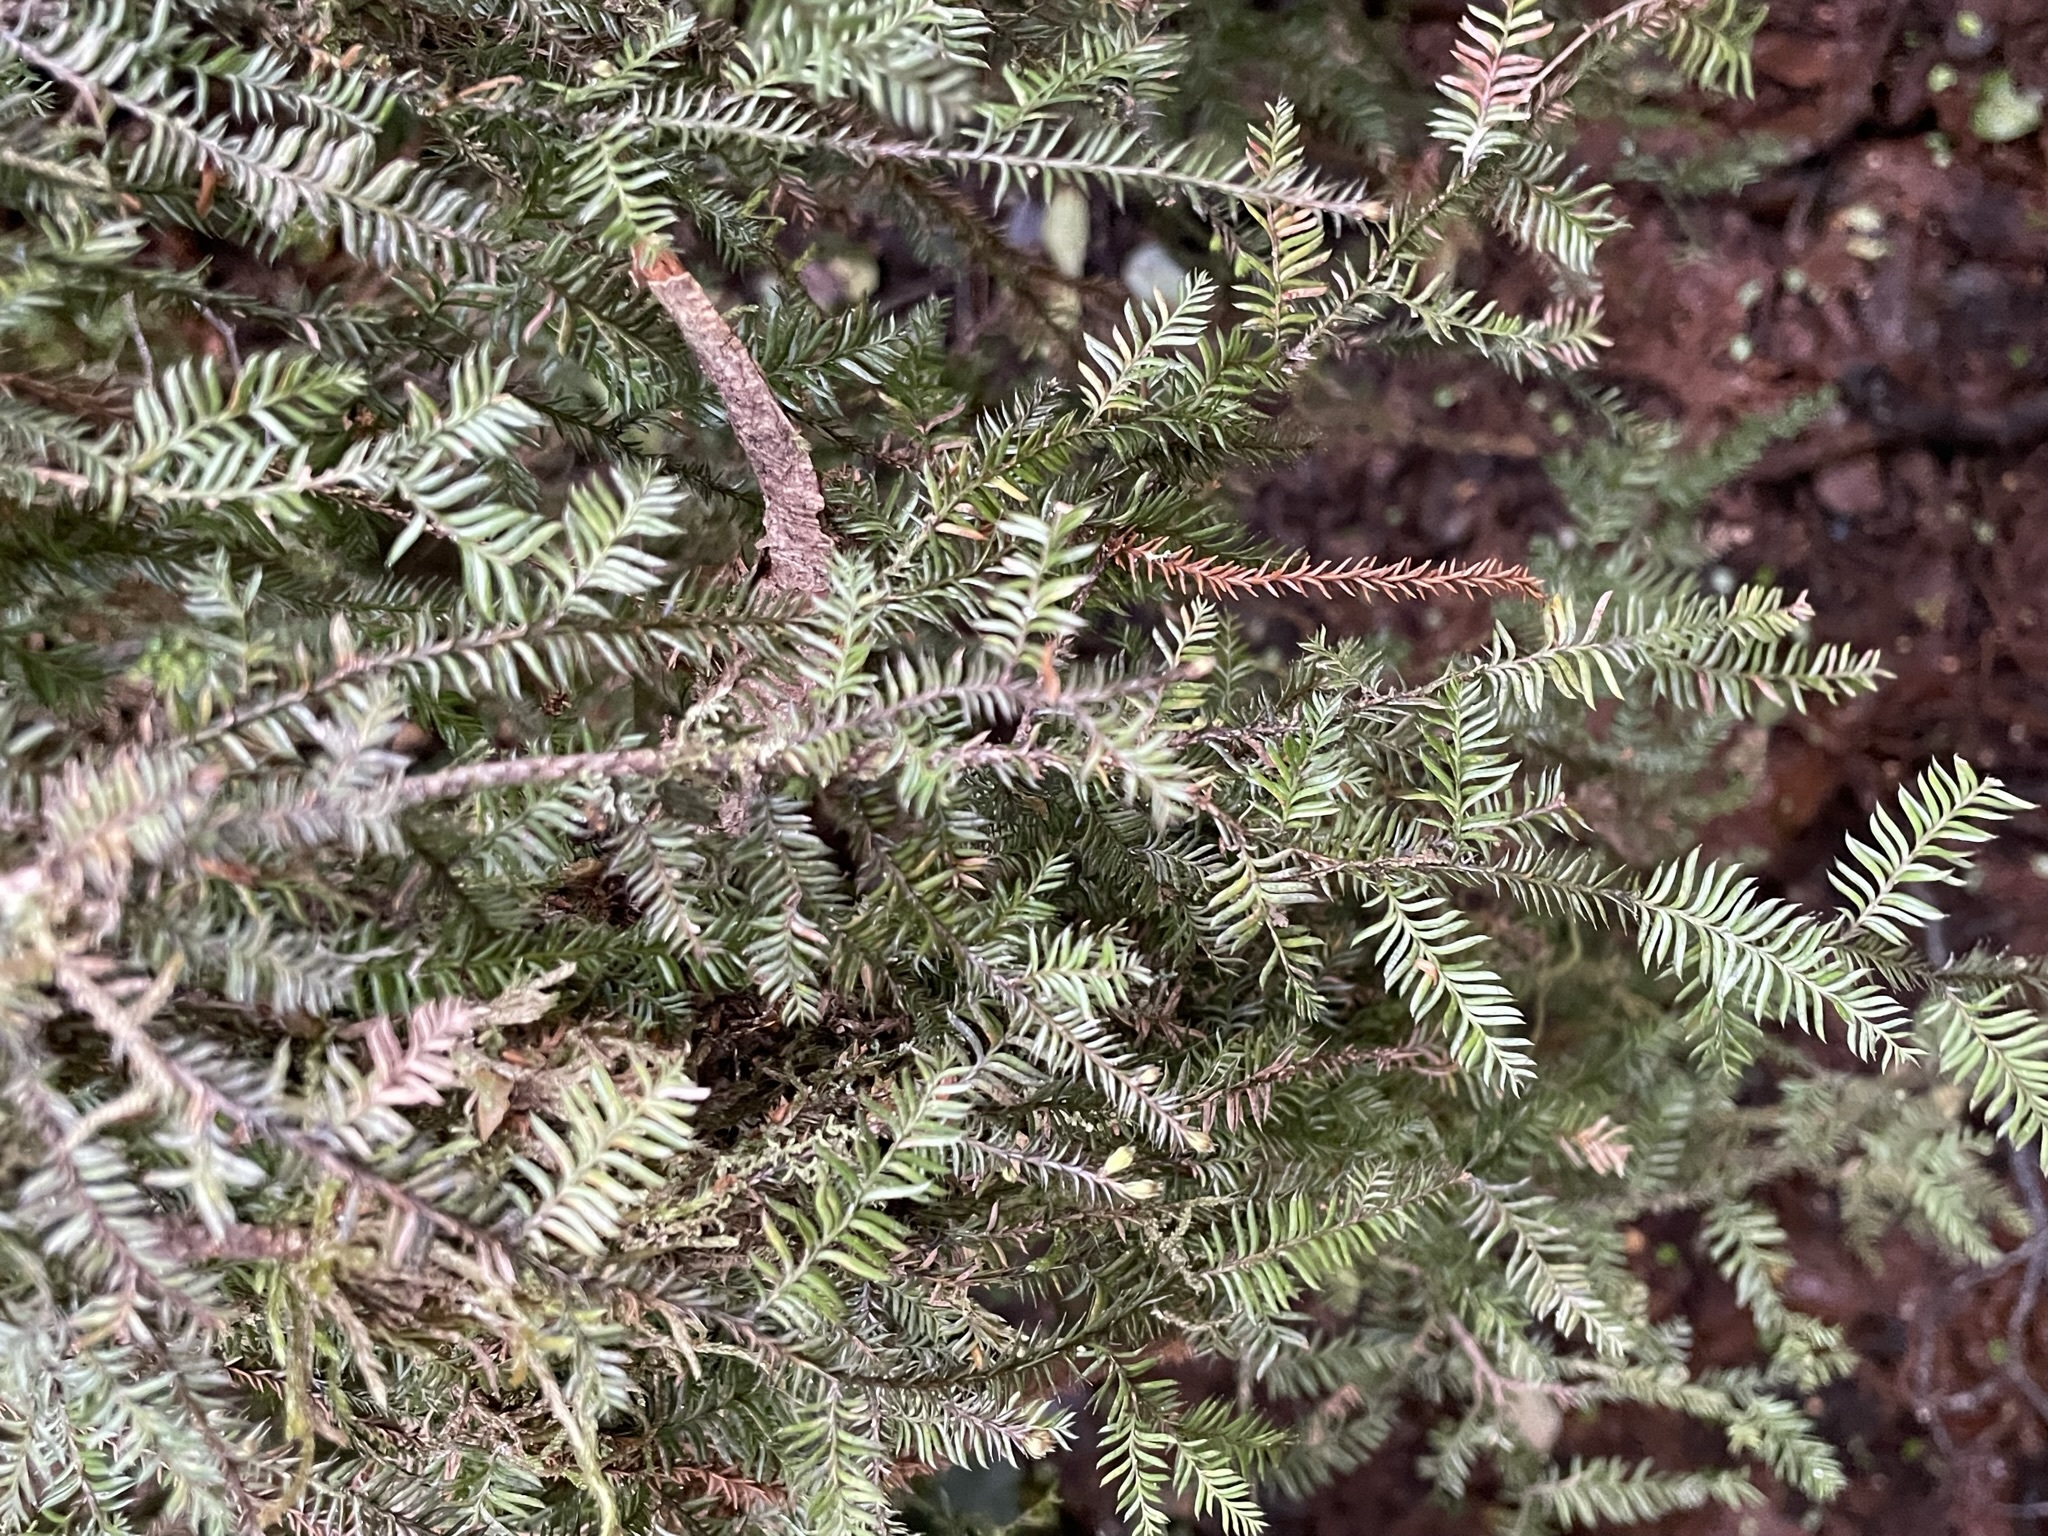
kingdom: Plantae
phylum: Tracheophyta
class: Pinopsida
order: Pinales
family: Podocarpaceae
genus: Dacrycarpus
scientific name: Dacrycarpus dacrydioides
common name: White pine
